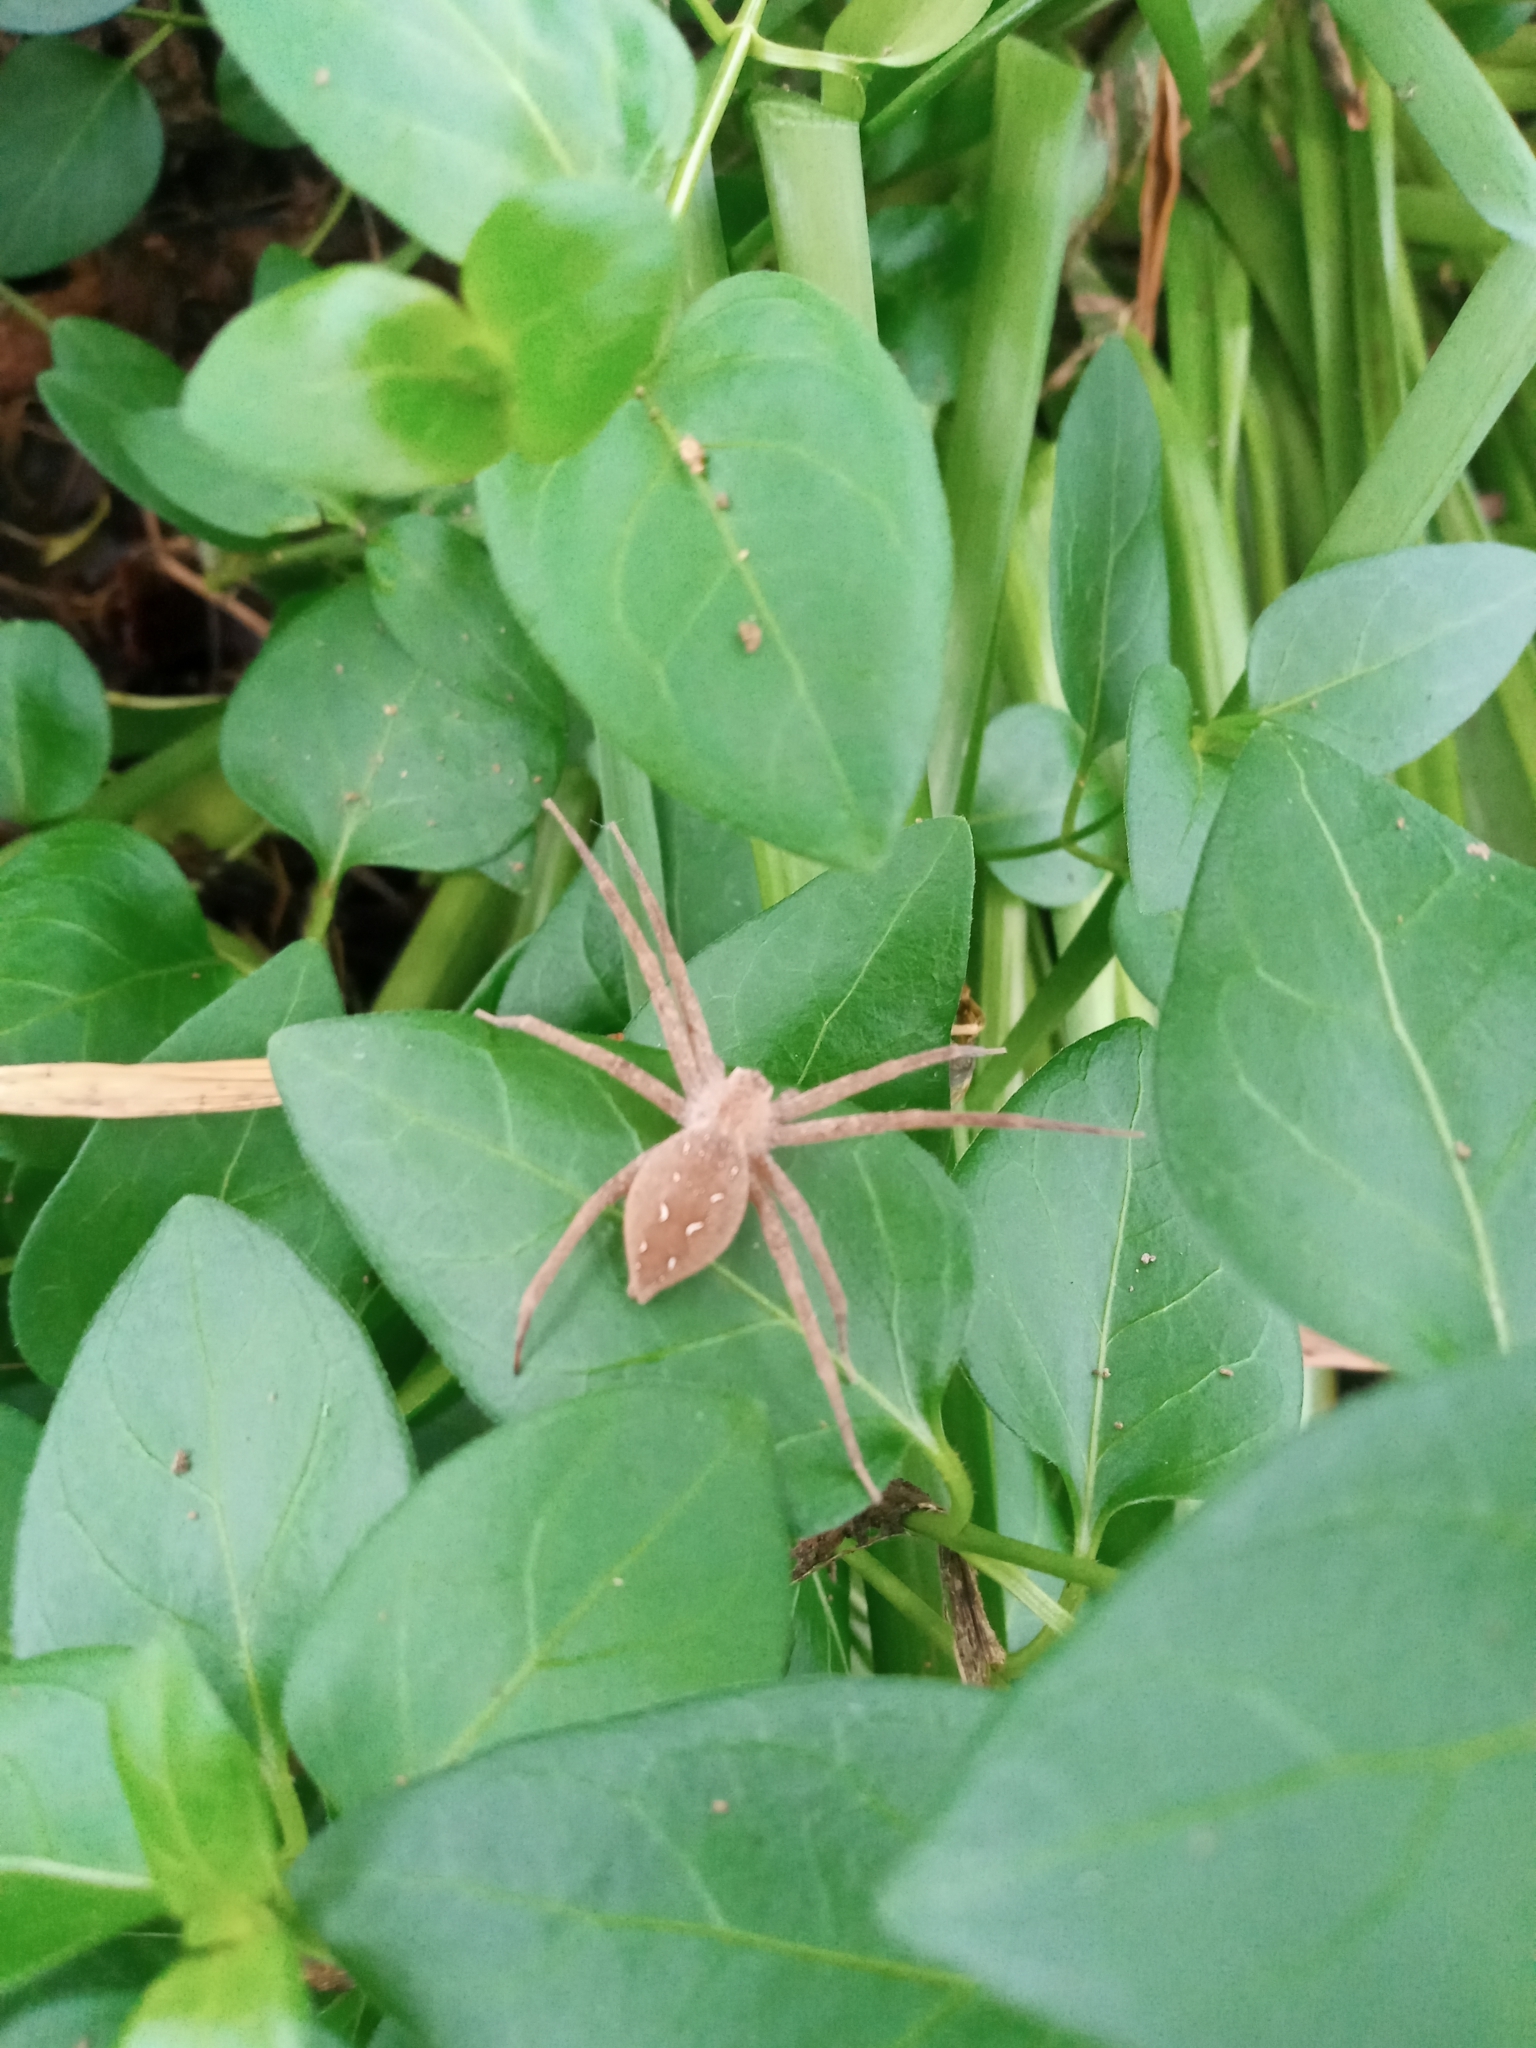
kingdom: Animalia
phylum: Arthropoda
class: Arachnida
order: Araneae
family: Pisauridae
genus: Pisaurina
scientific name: Pisaurina mira
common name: American nursery web spider
